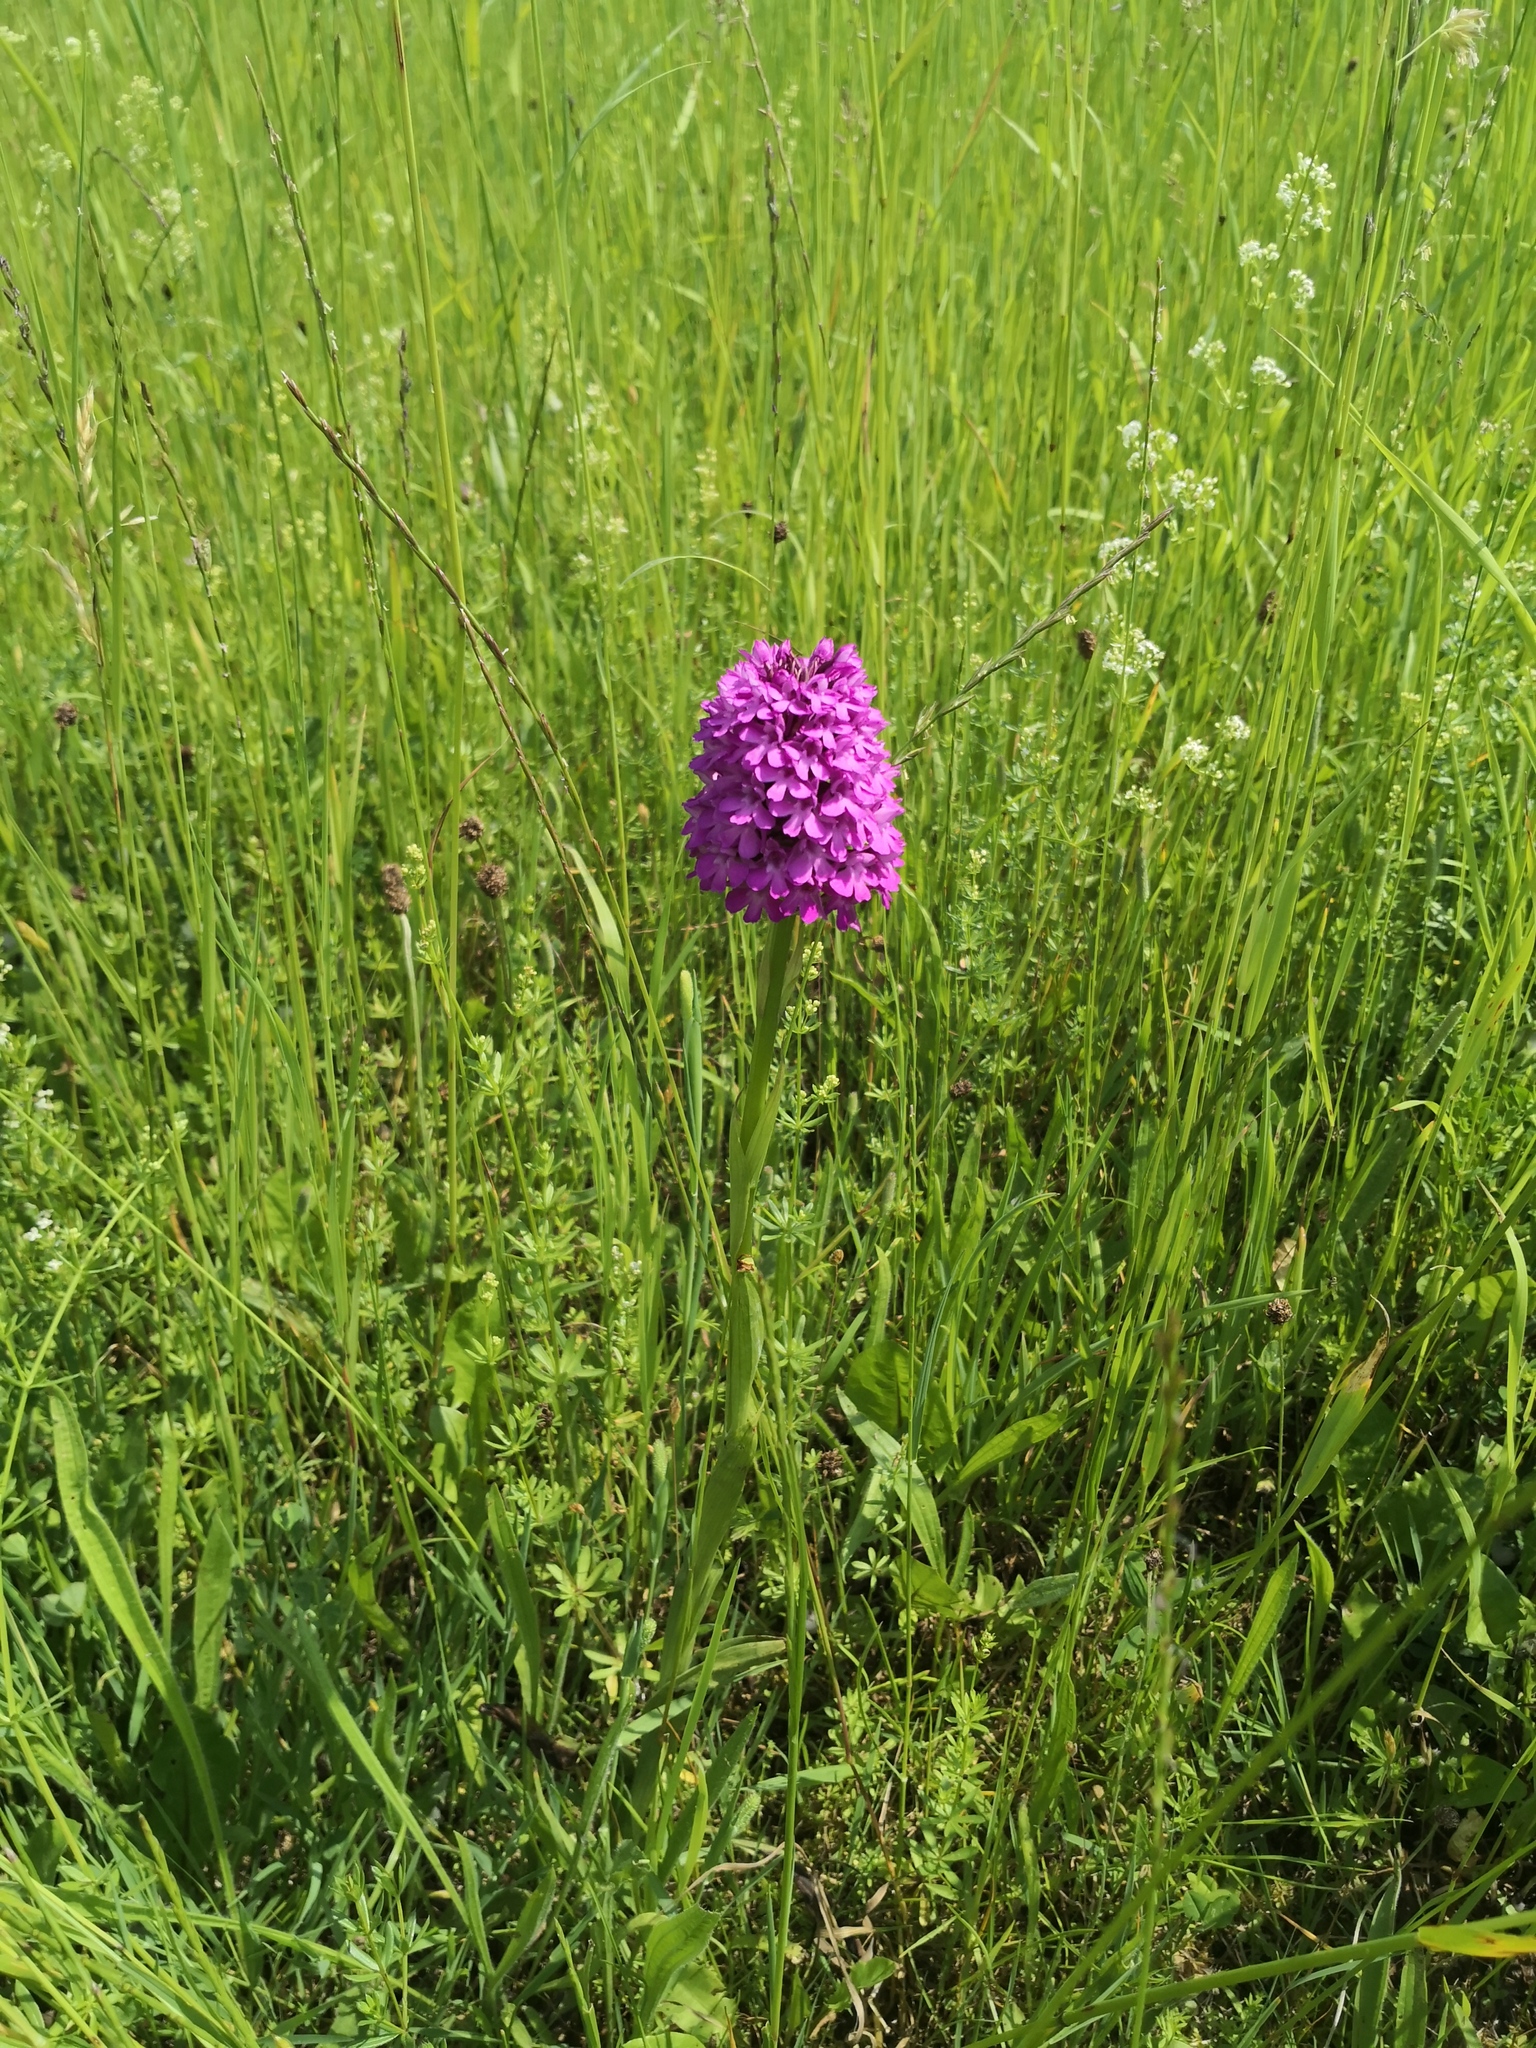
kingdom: Plantae
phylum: Tracheophyta
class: Liliopsida
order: Asparagales
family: Orchidaceae
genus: Anacamptis
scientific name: Anacamptis pyramidalis
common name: Pyramidal orchid
